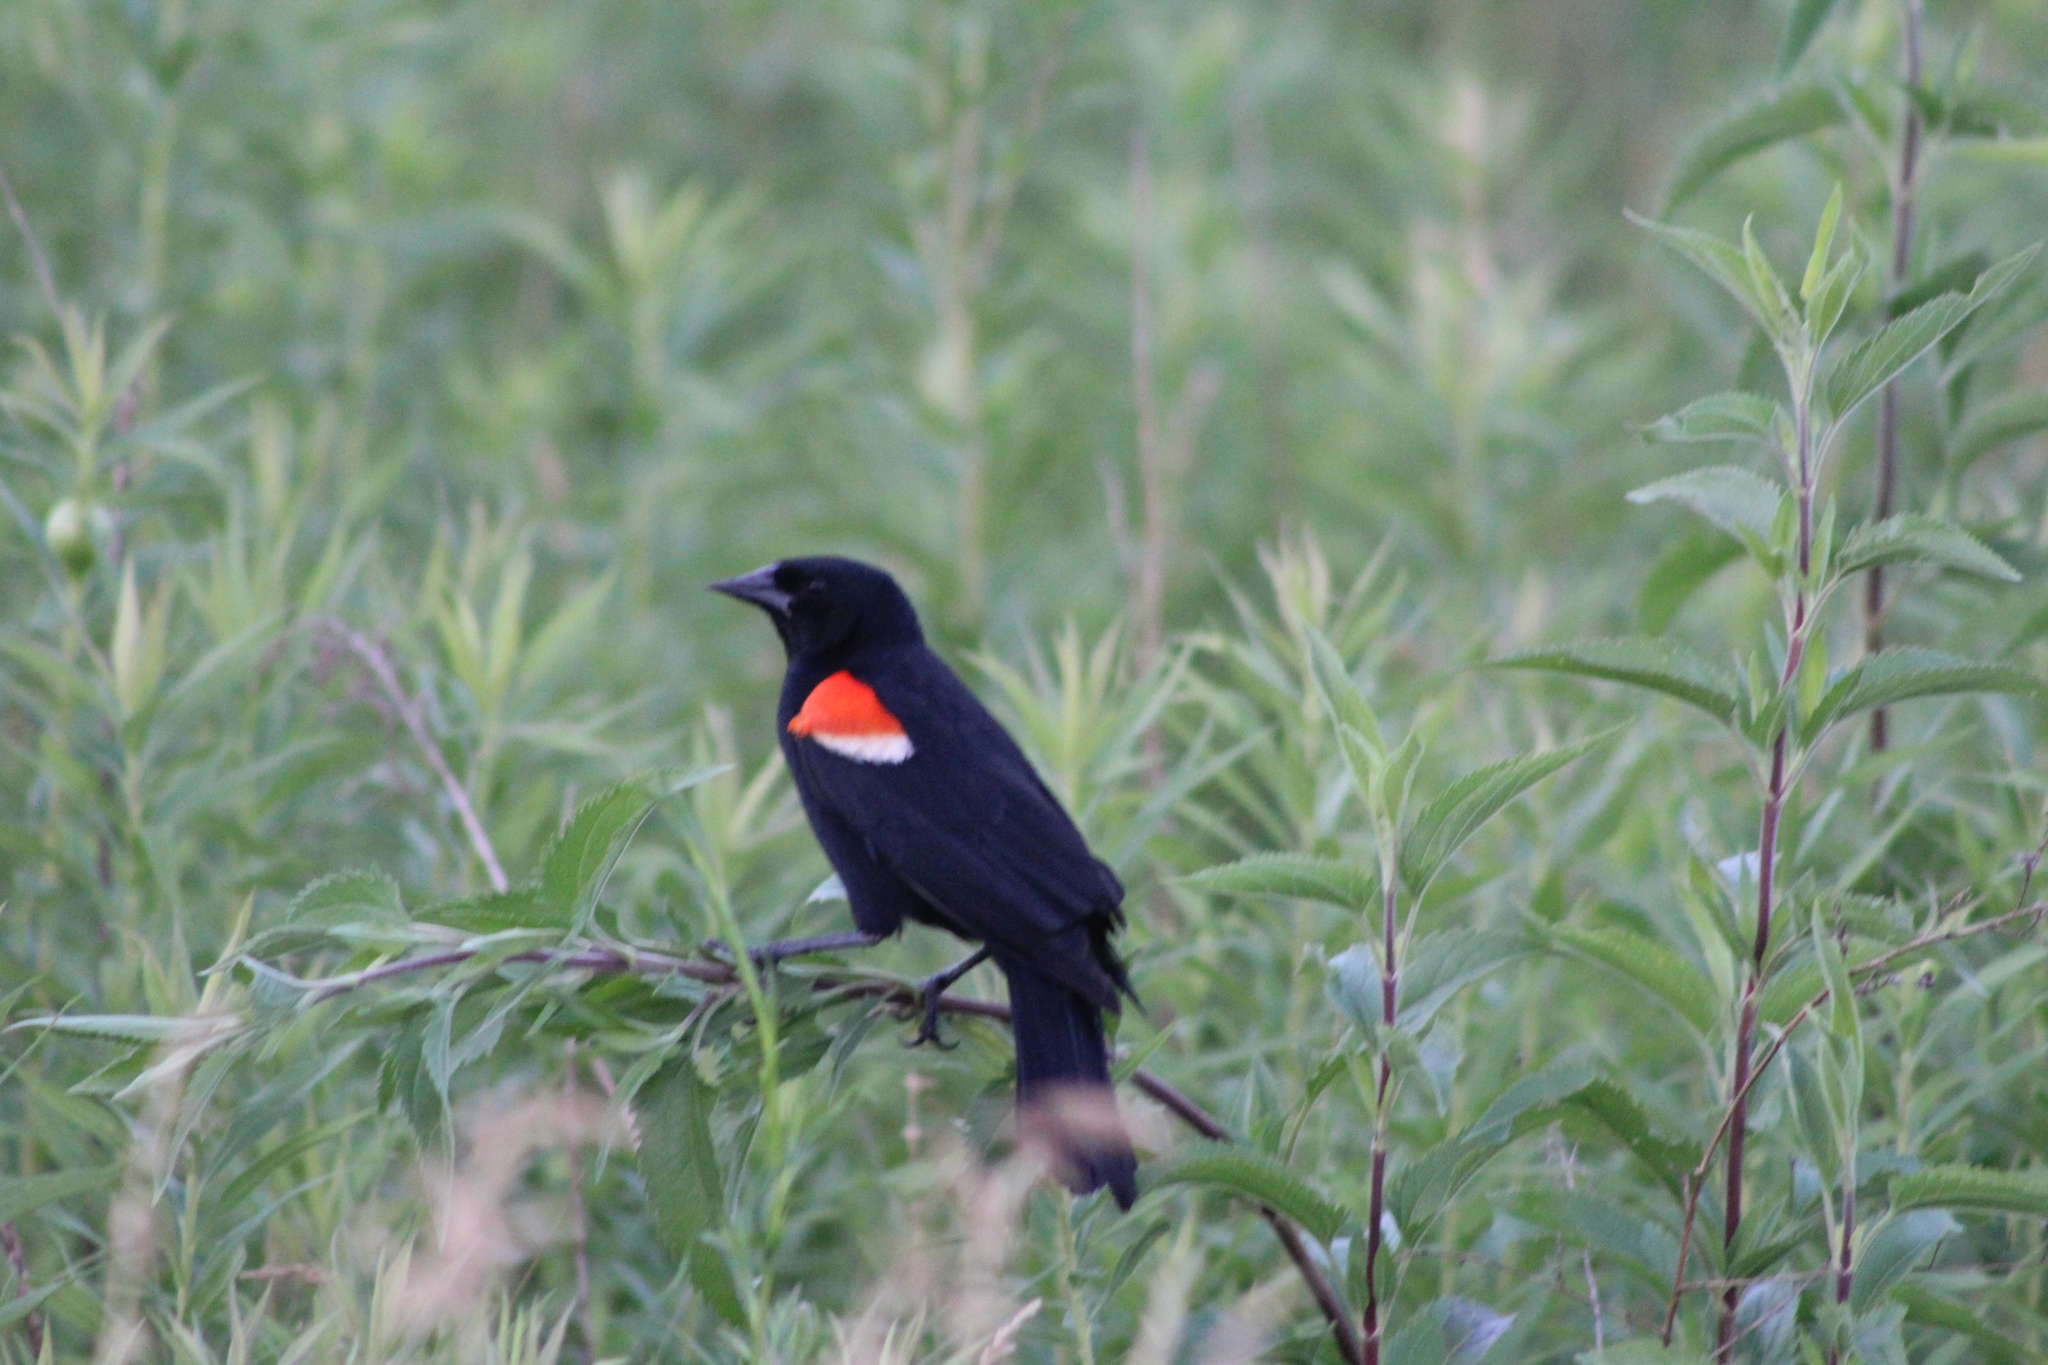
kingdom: Animalia
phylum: Chordata
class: Aves
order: Passeriformes
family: Icteridae
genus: Agelaius
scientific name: Agelaius phoeniceus
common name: Red-winged blackbird
